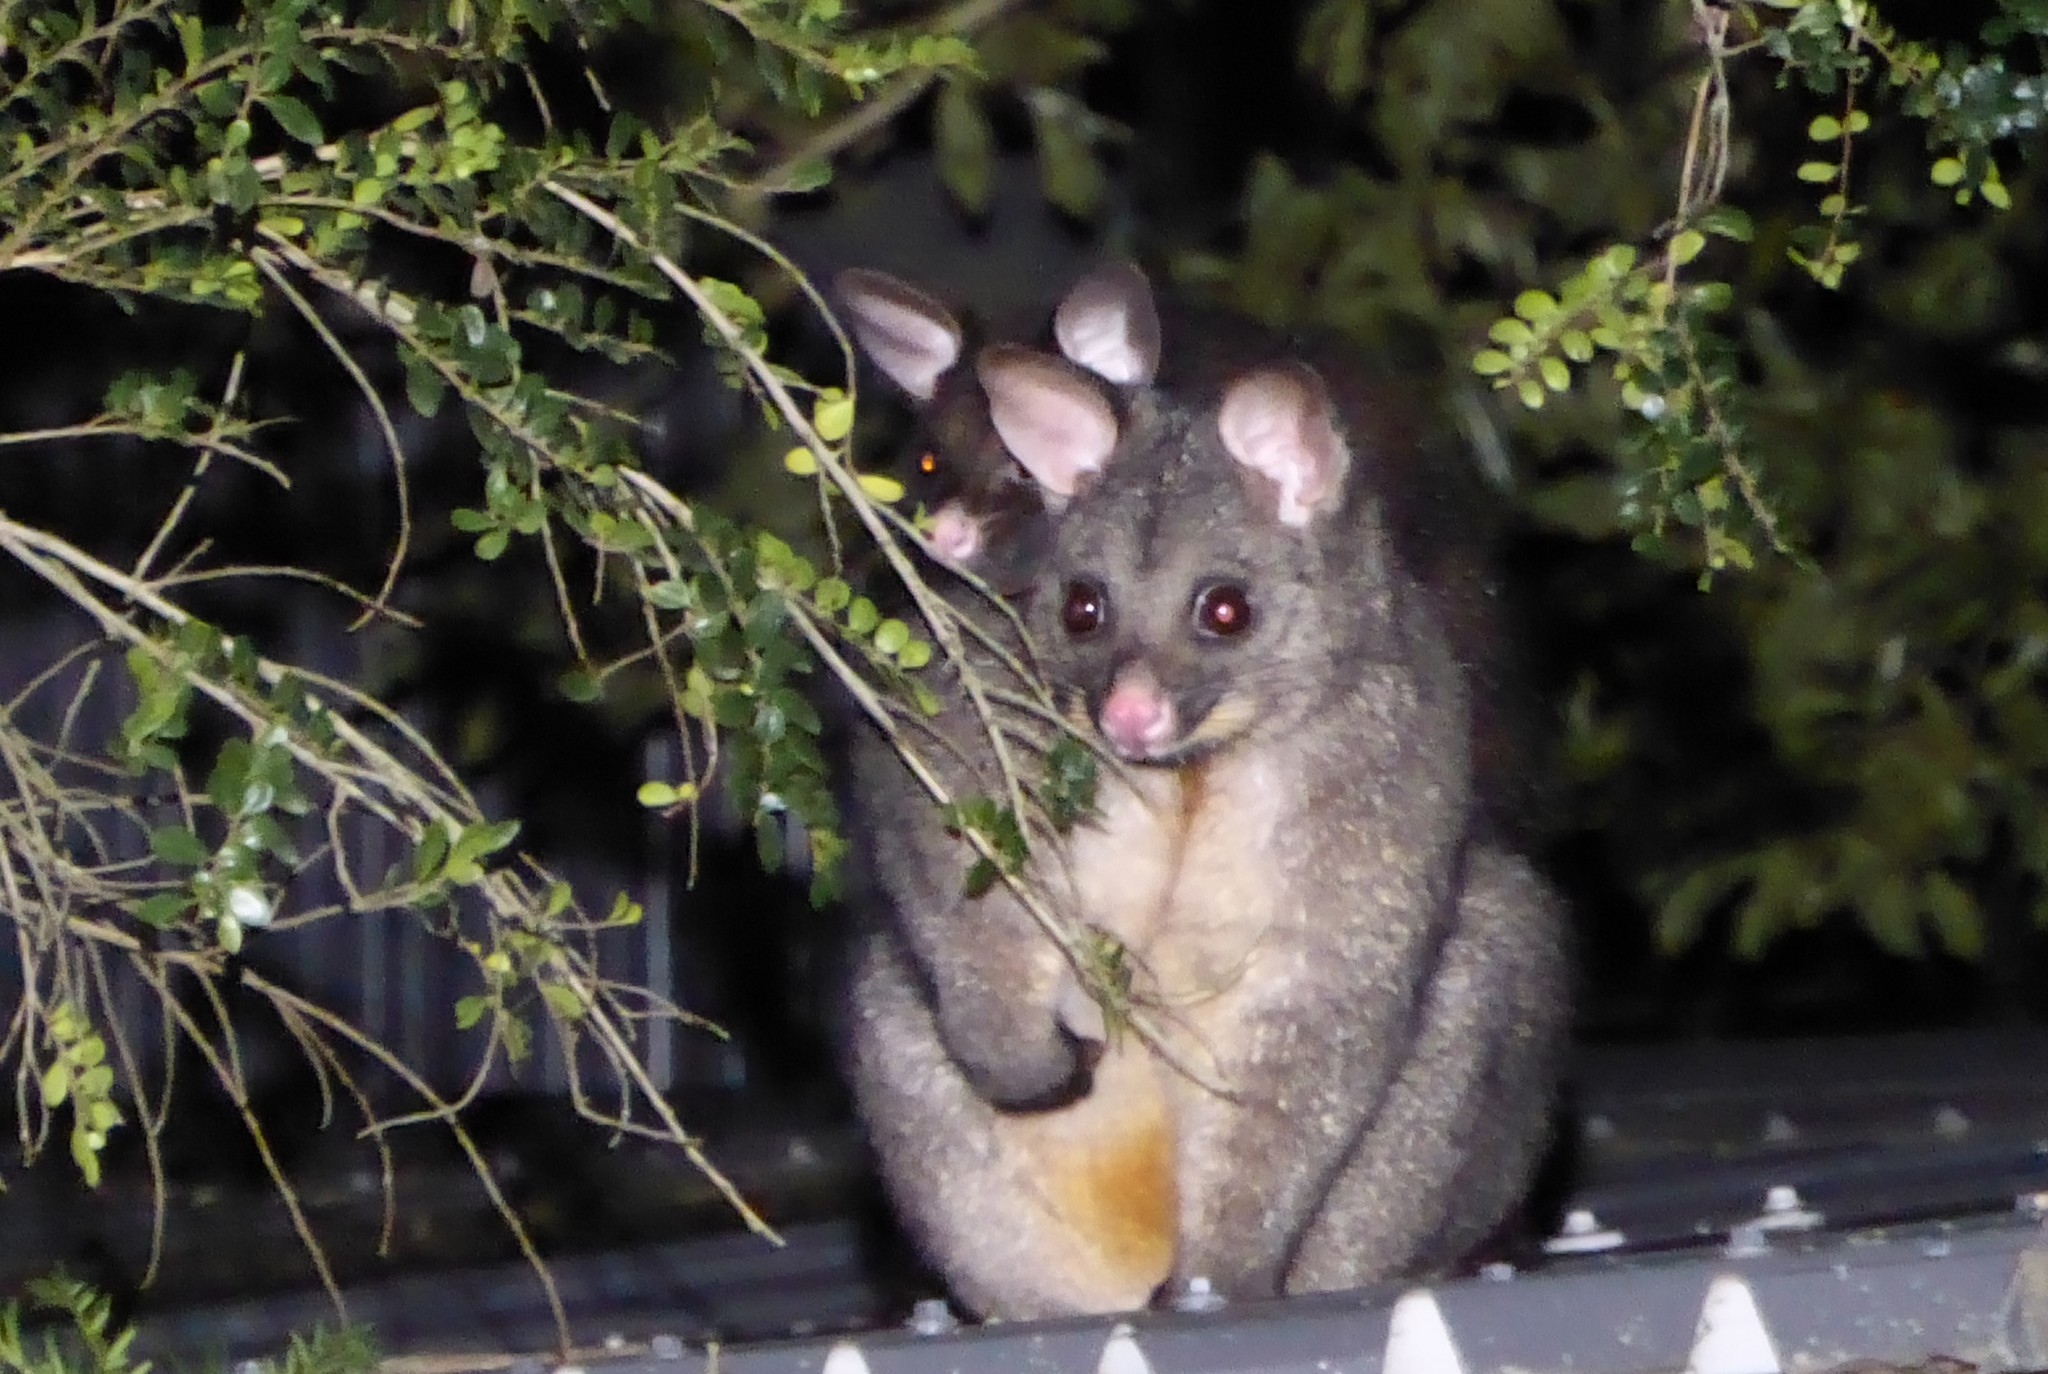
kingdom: Animalia
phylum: Chordata
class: Mammalia
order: Diprotodontia
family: Phalangeridae
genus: Trichosurus
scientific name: Trichosurus vulpecula
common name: Common brushtail
